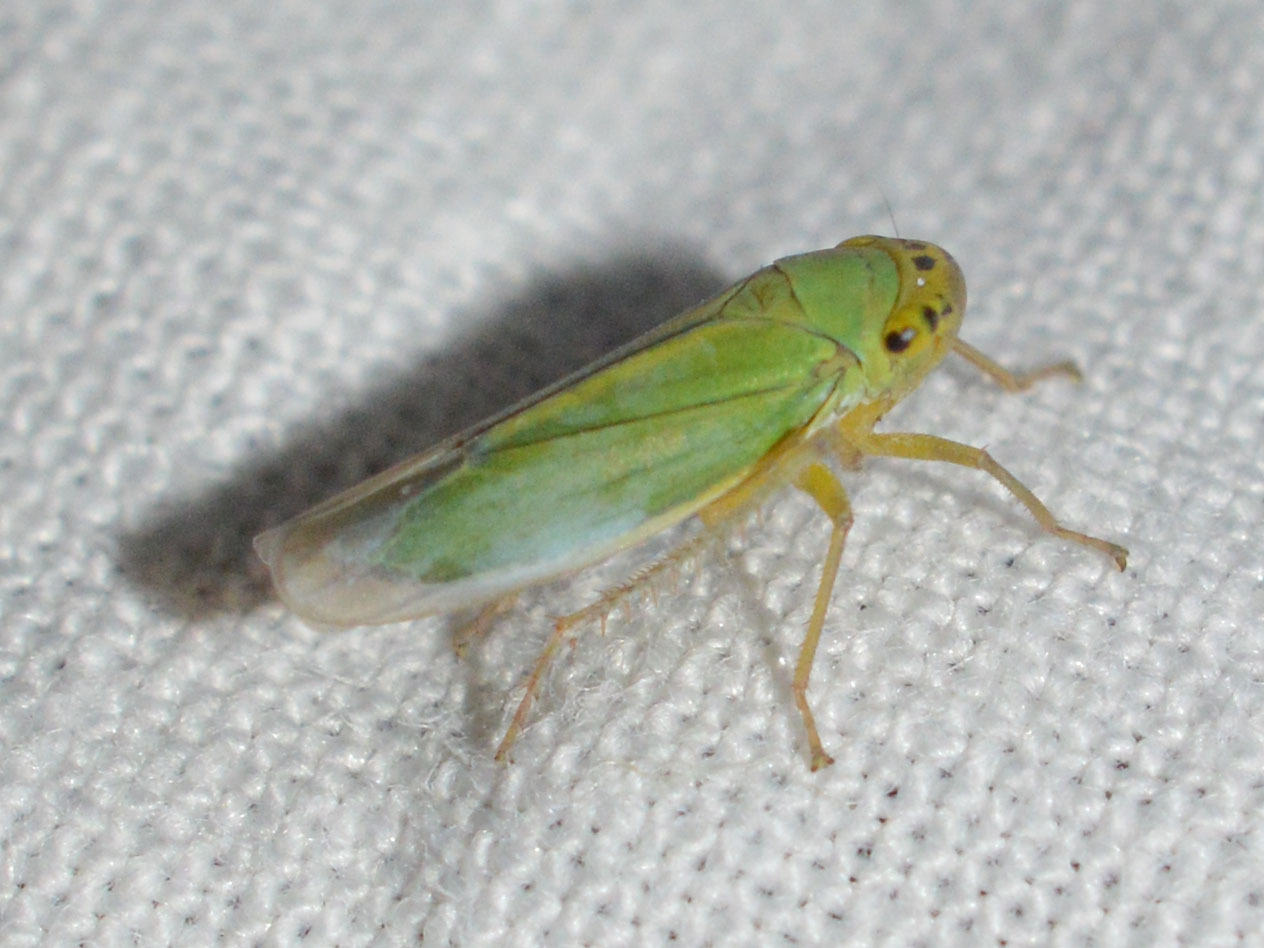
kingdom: Animalia
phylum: Arthropoda
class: Insecta
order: Hemiptera
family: Cicadellidae
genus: Cicadella
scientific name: Cicadella viridis
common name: Leafhopper
